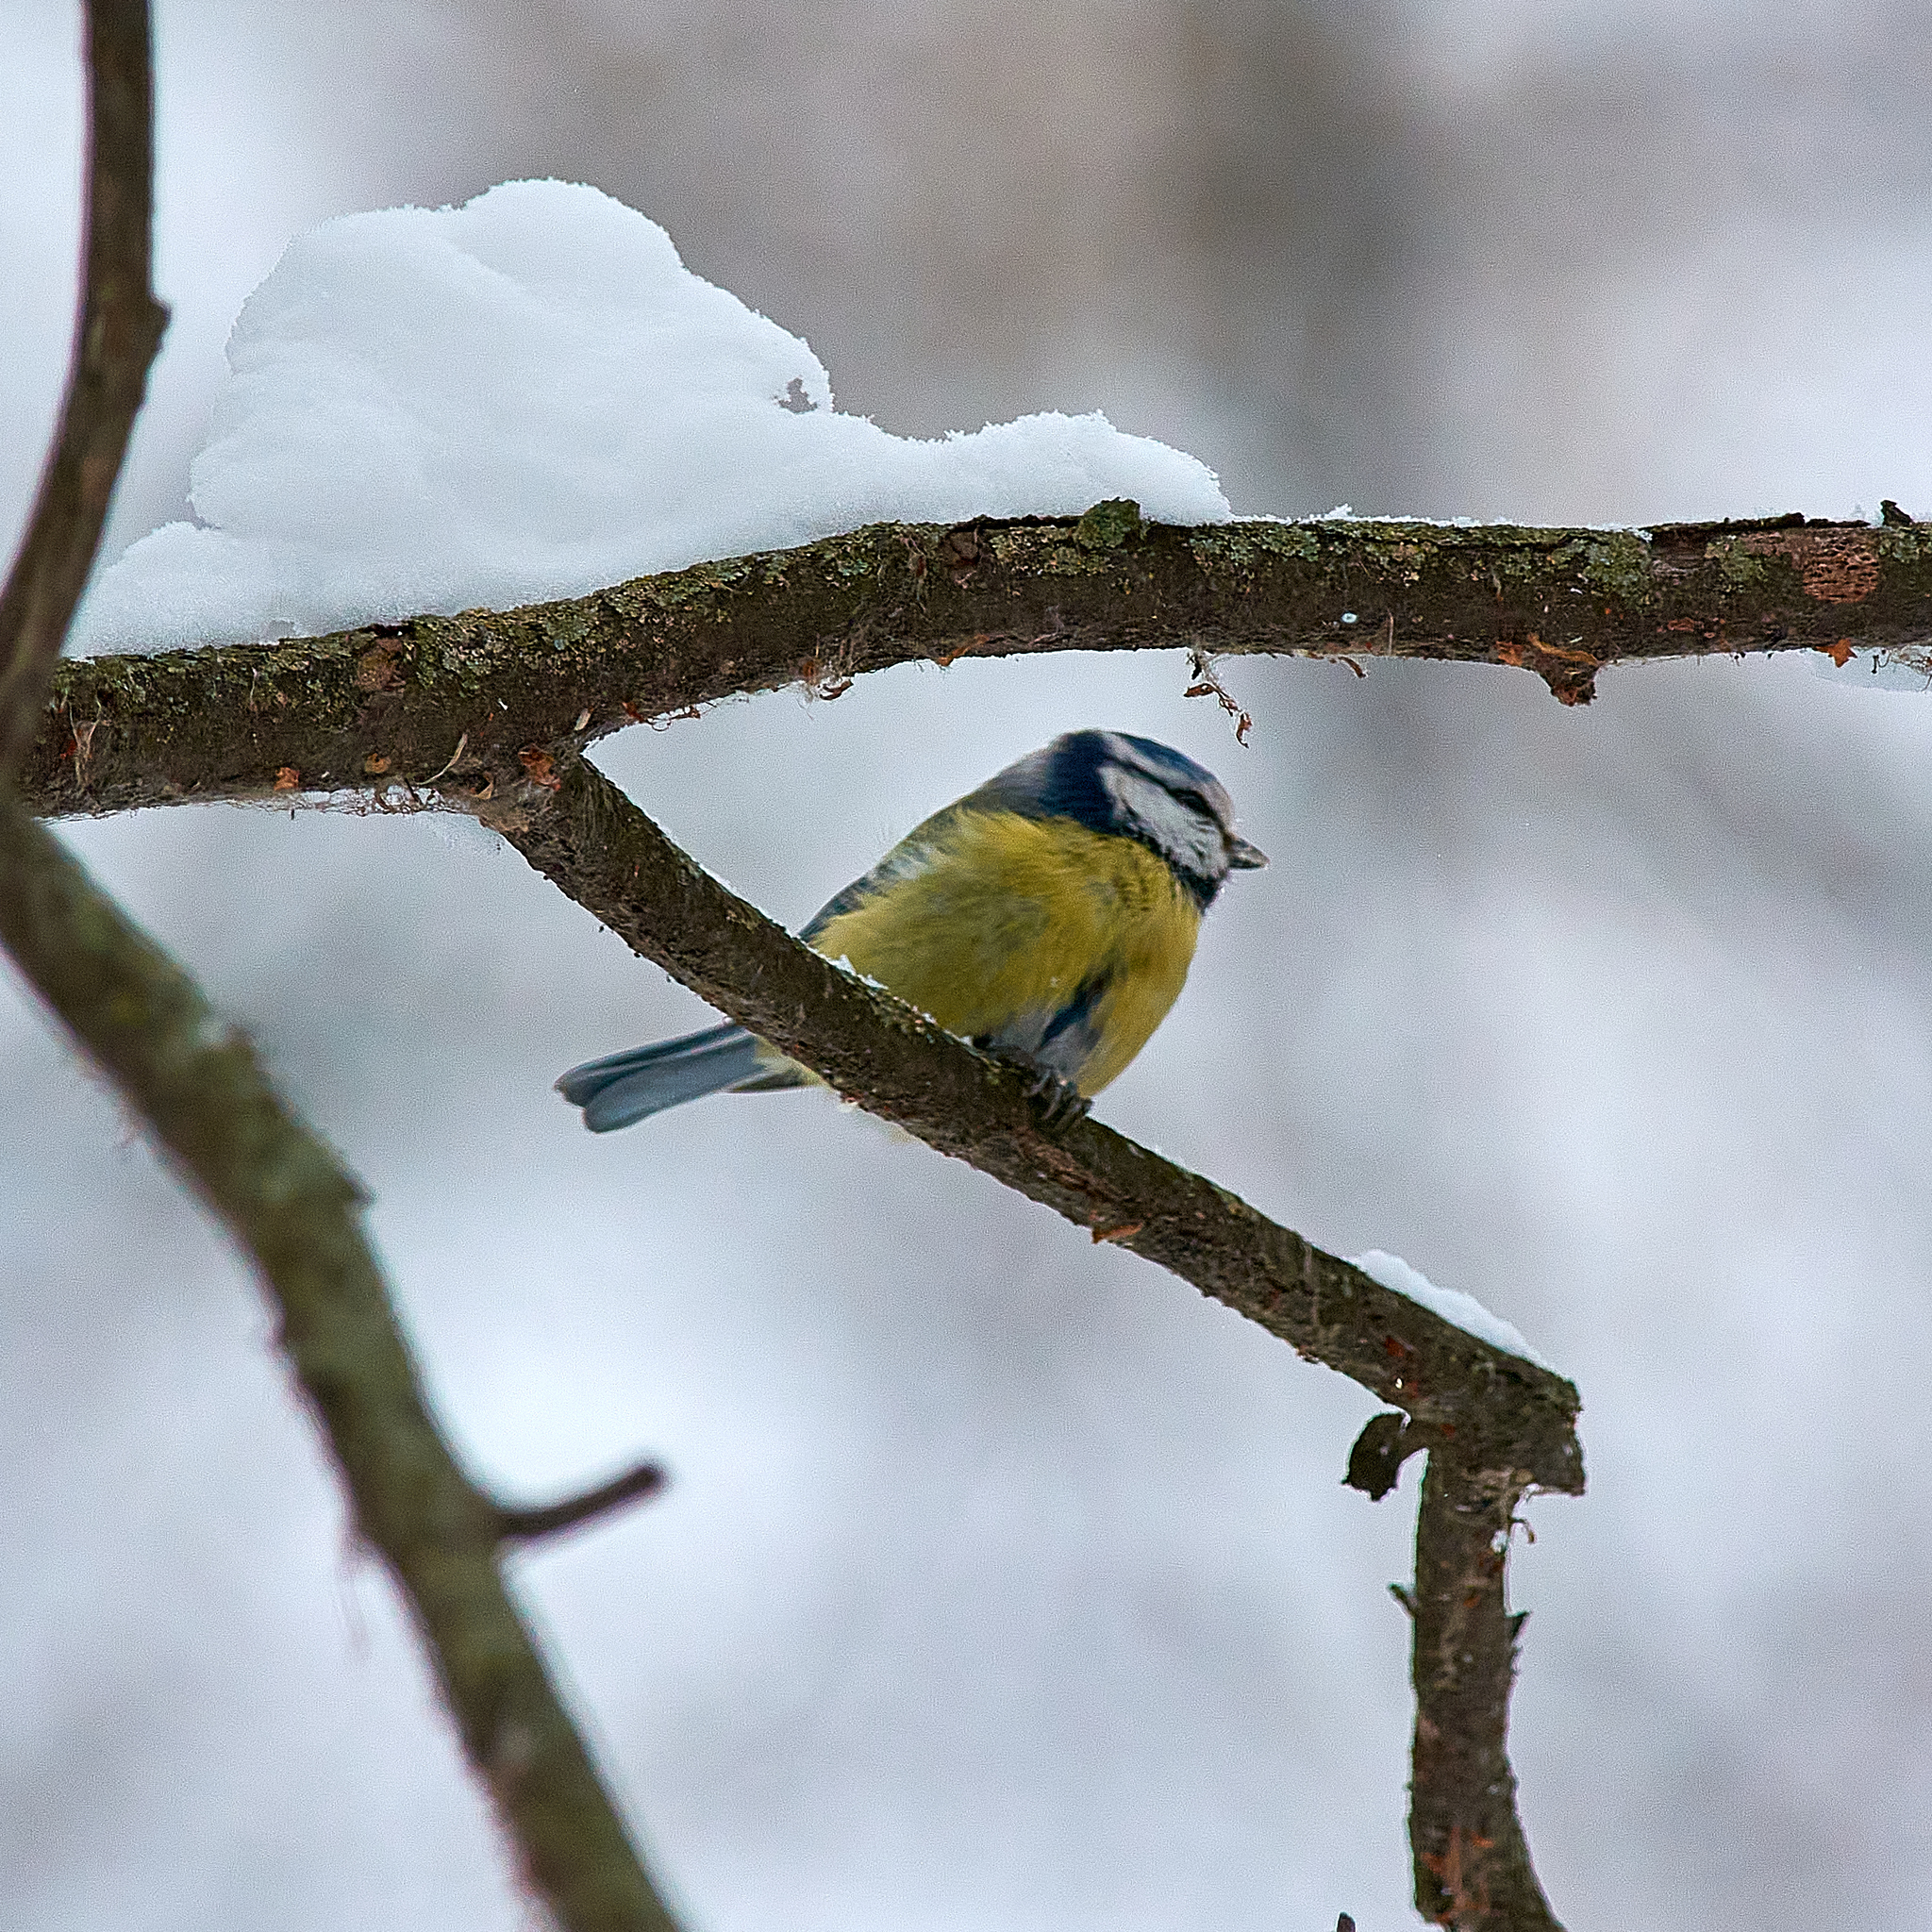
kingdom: Animalia
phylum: Chordata
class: Aves
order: Passeriformes
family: Paridae
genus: Cyanistes
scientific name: Cyanistes caeruleus
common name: Eurasian blue tit
